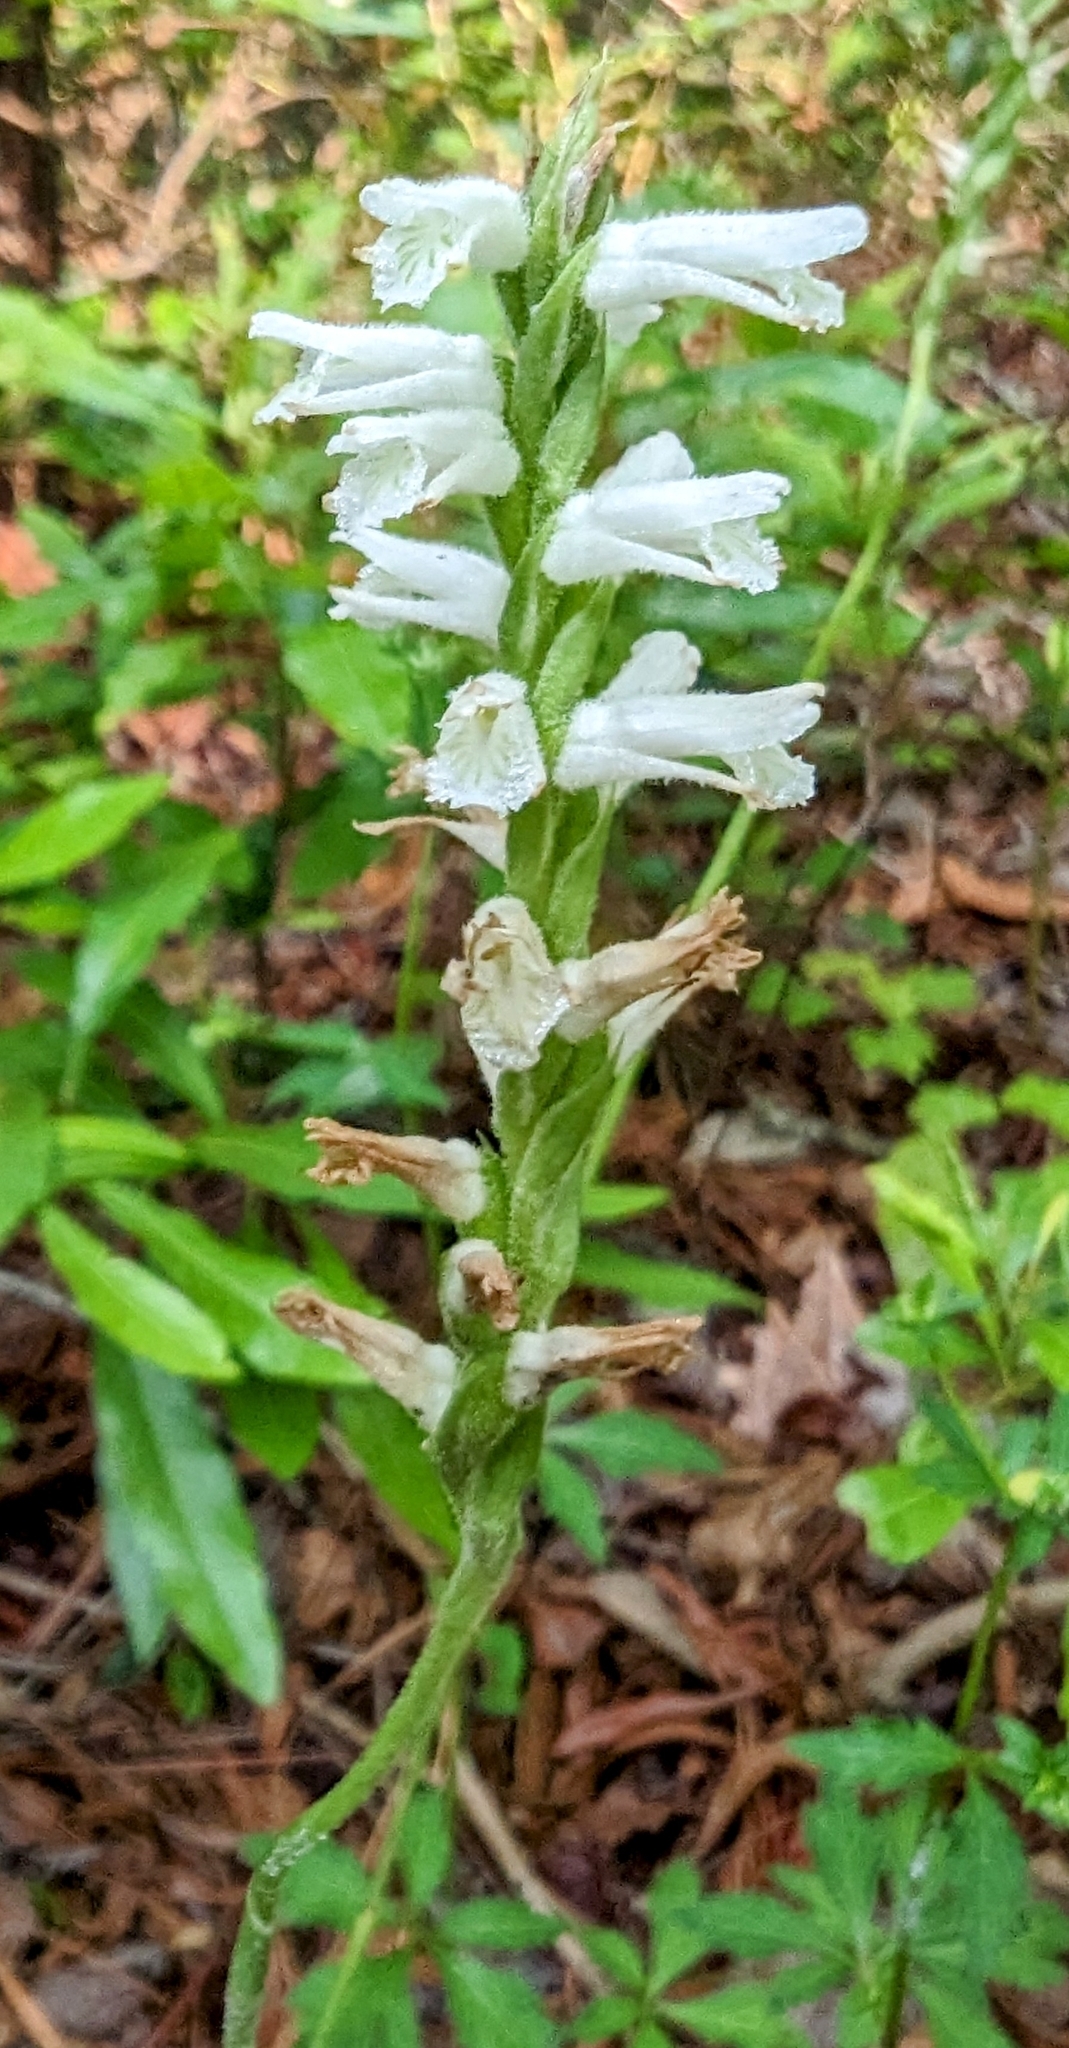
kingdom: Plantae
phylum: Tracheophyta
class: Liliopsida
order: Asparagales
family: Orchidaceae
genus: Spiranthes
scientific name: Spiranthes praecox
